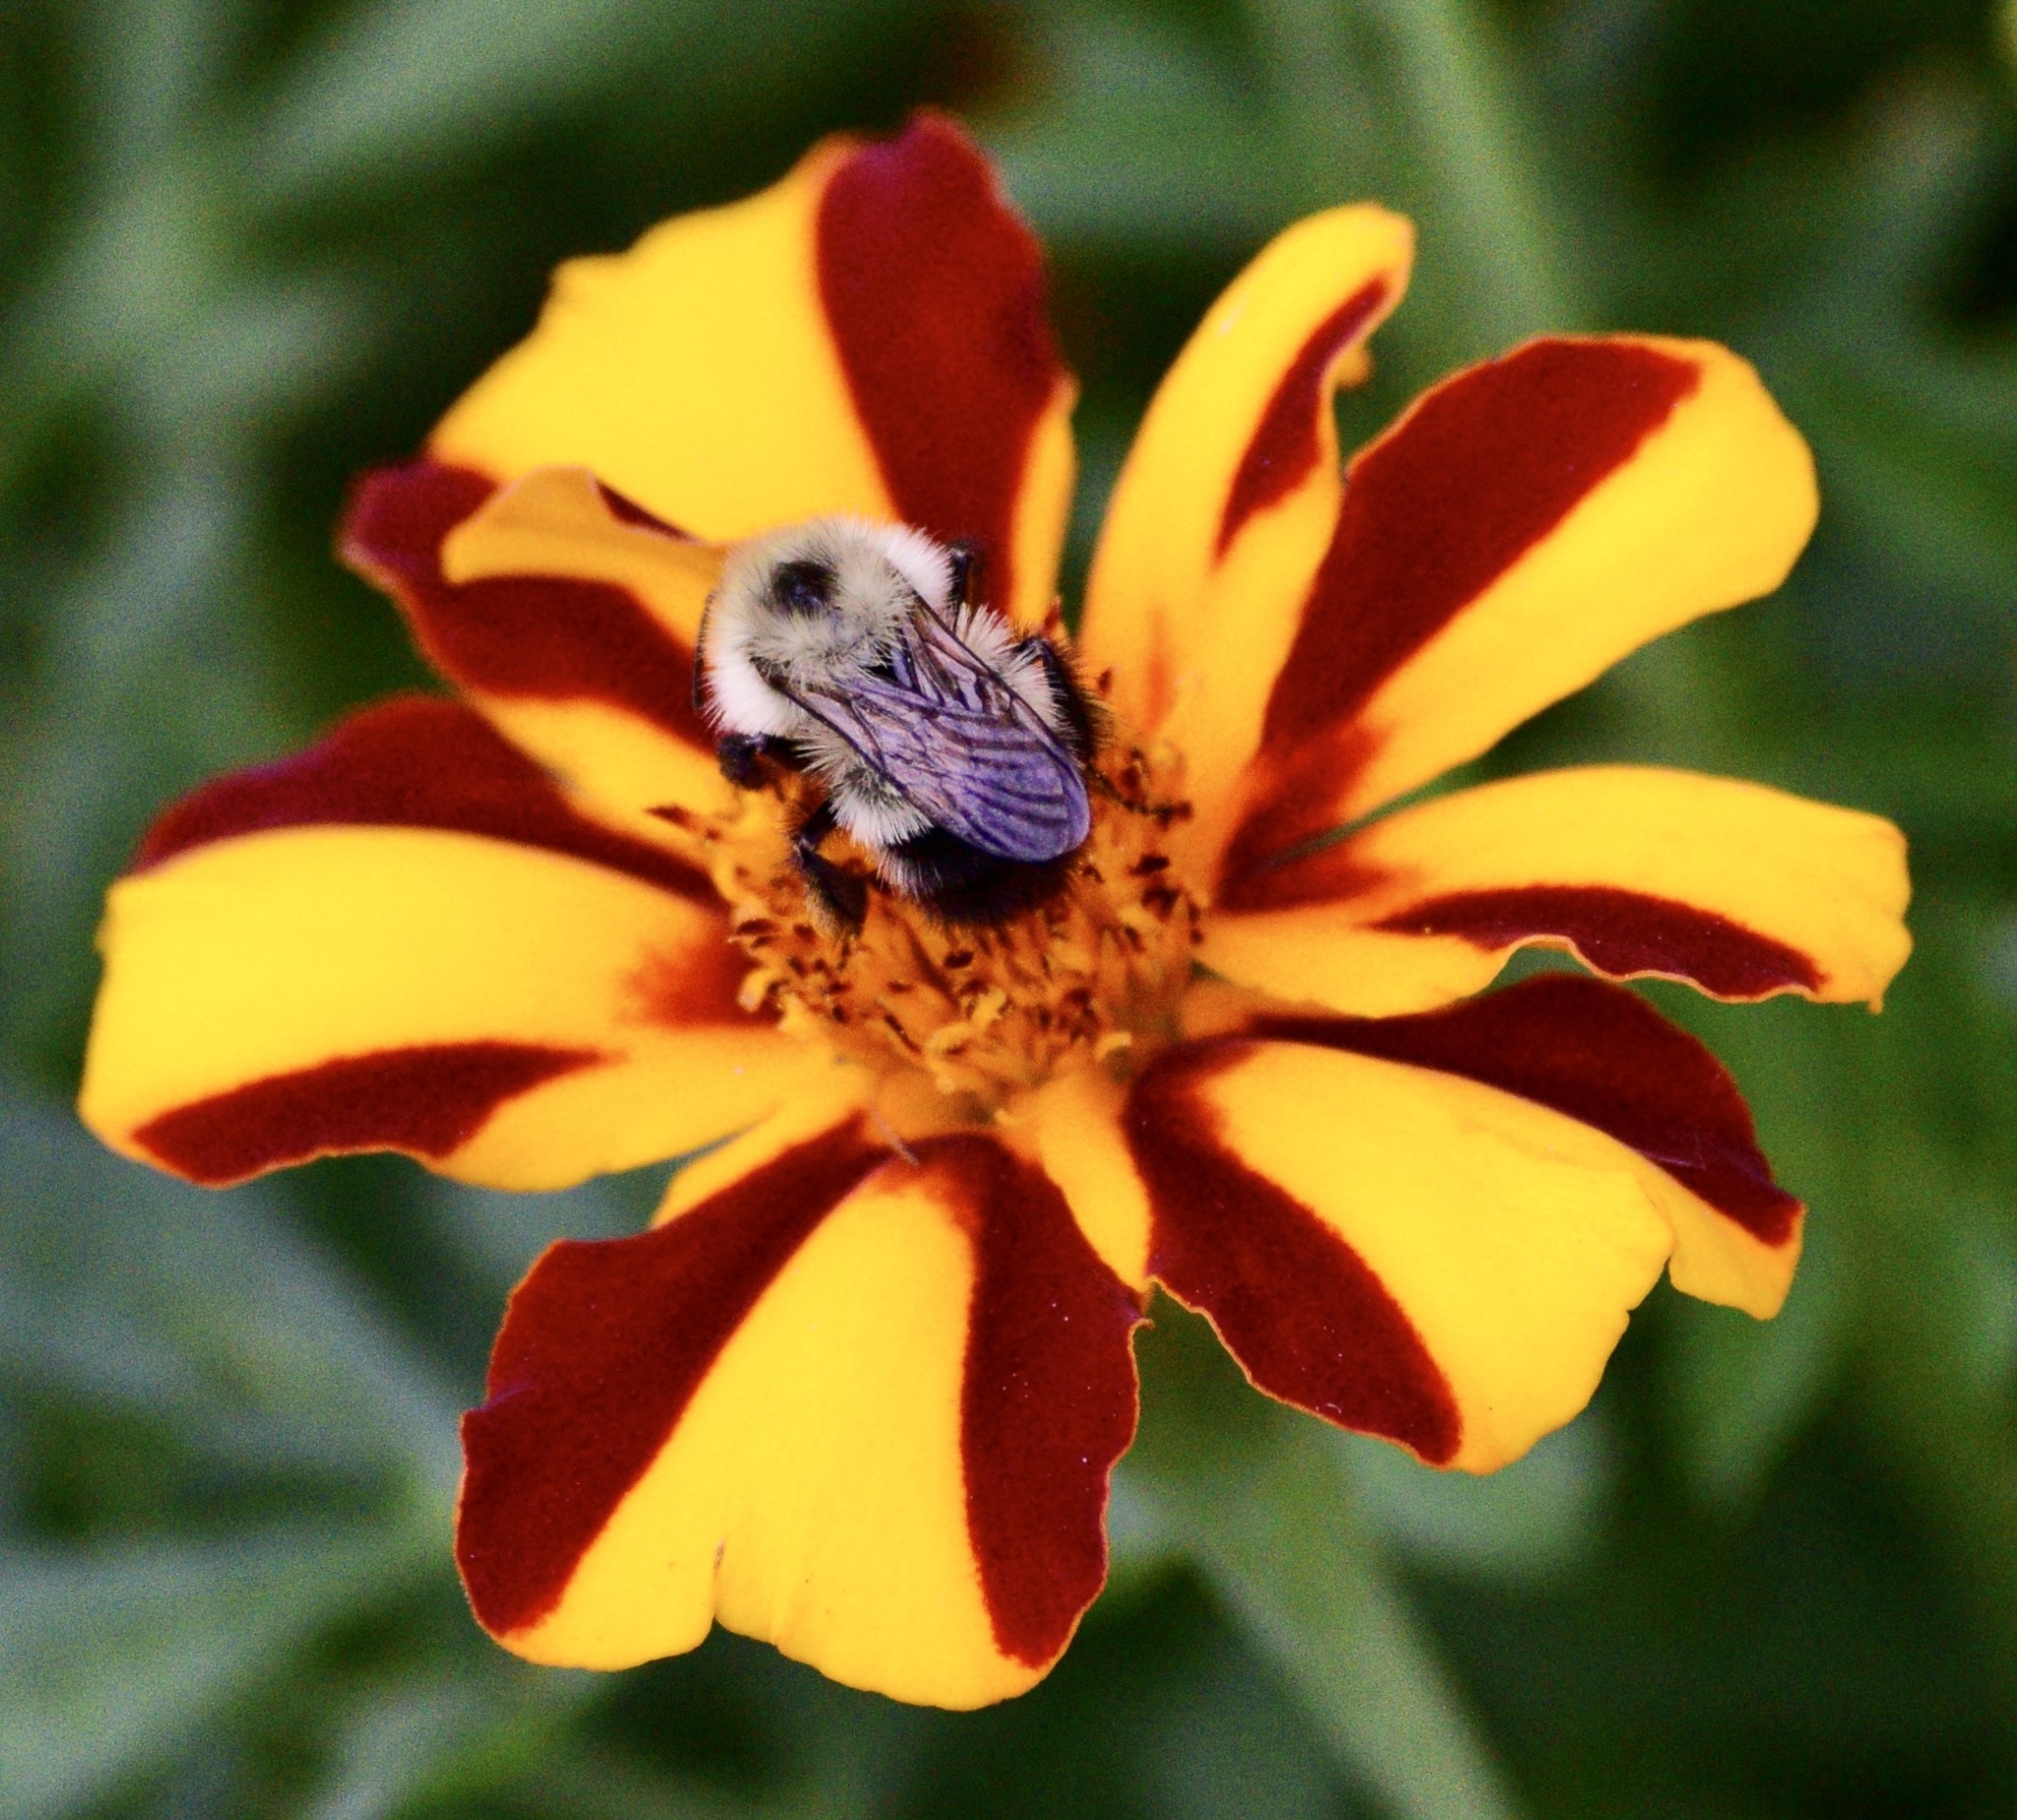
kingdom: Animalia
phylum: Arthropoda
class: Insecta
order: Hymenoptera
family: Apidae
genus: Pyrobombus
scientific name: Pyrobombus
